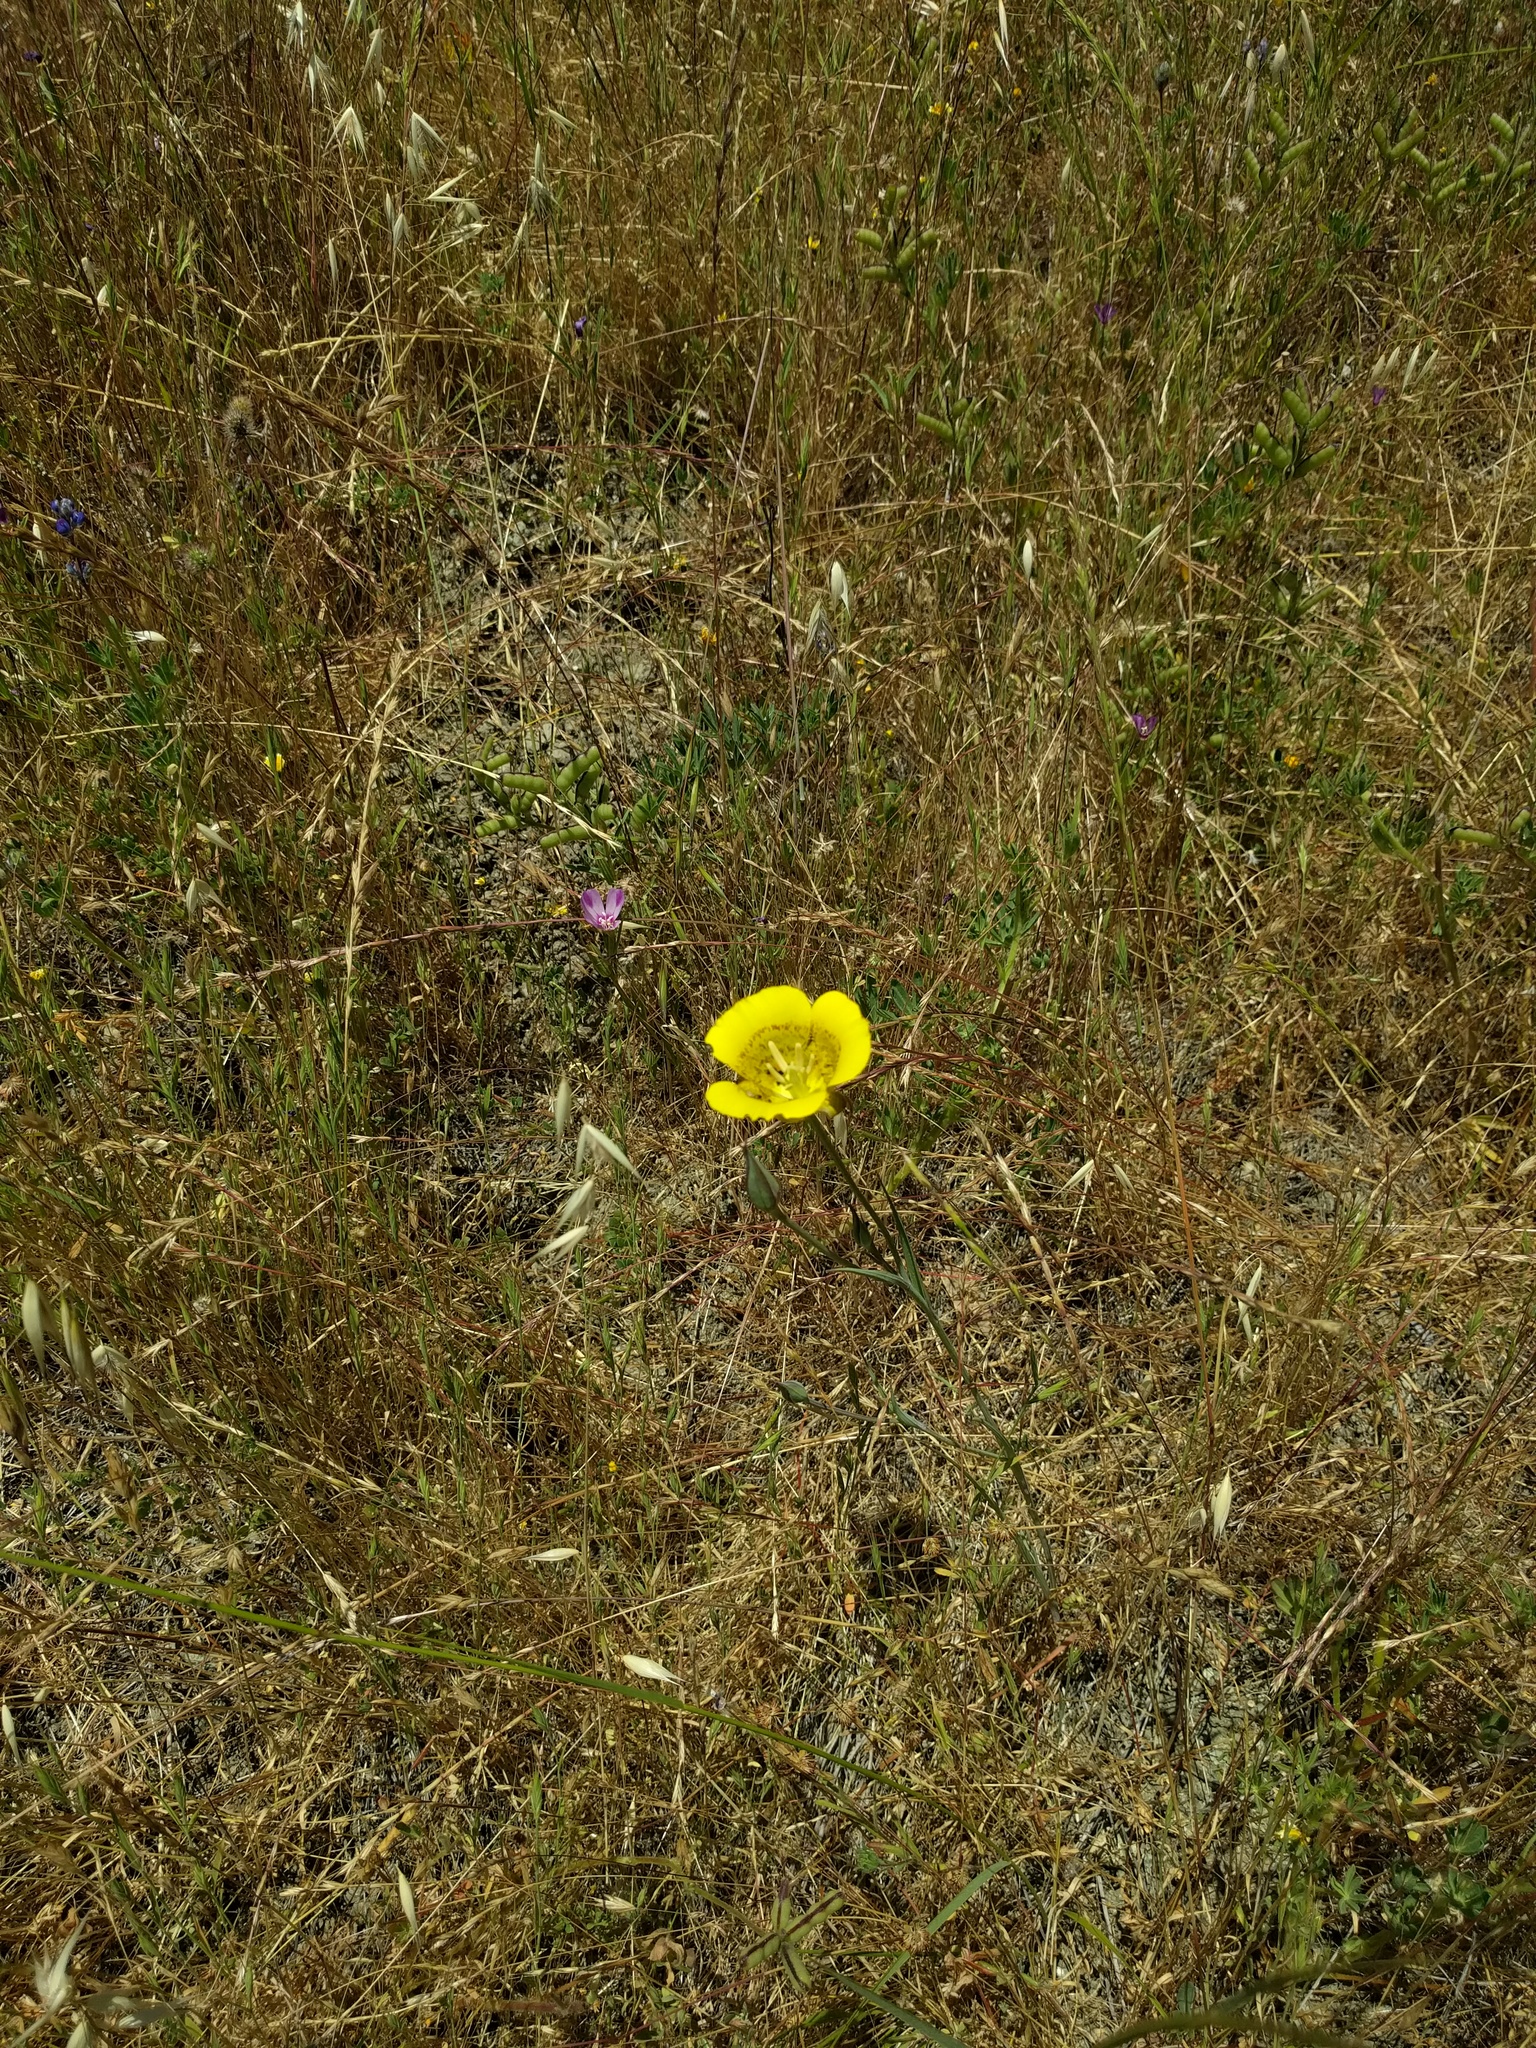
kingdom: Plantae
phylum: Tracheophyta
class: Liliopsida
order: Liliales
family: Liliaceae
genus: Calochortus
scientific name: Calochortus luteus
